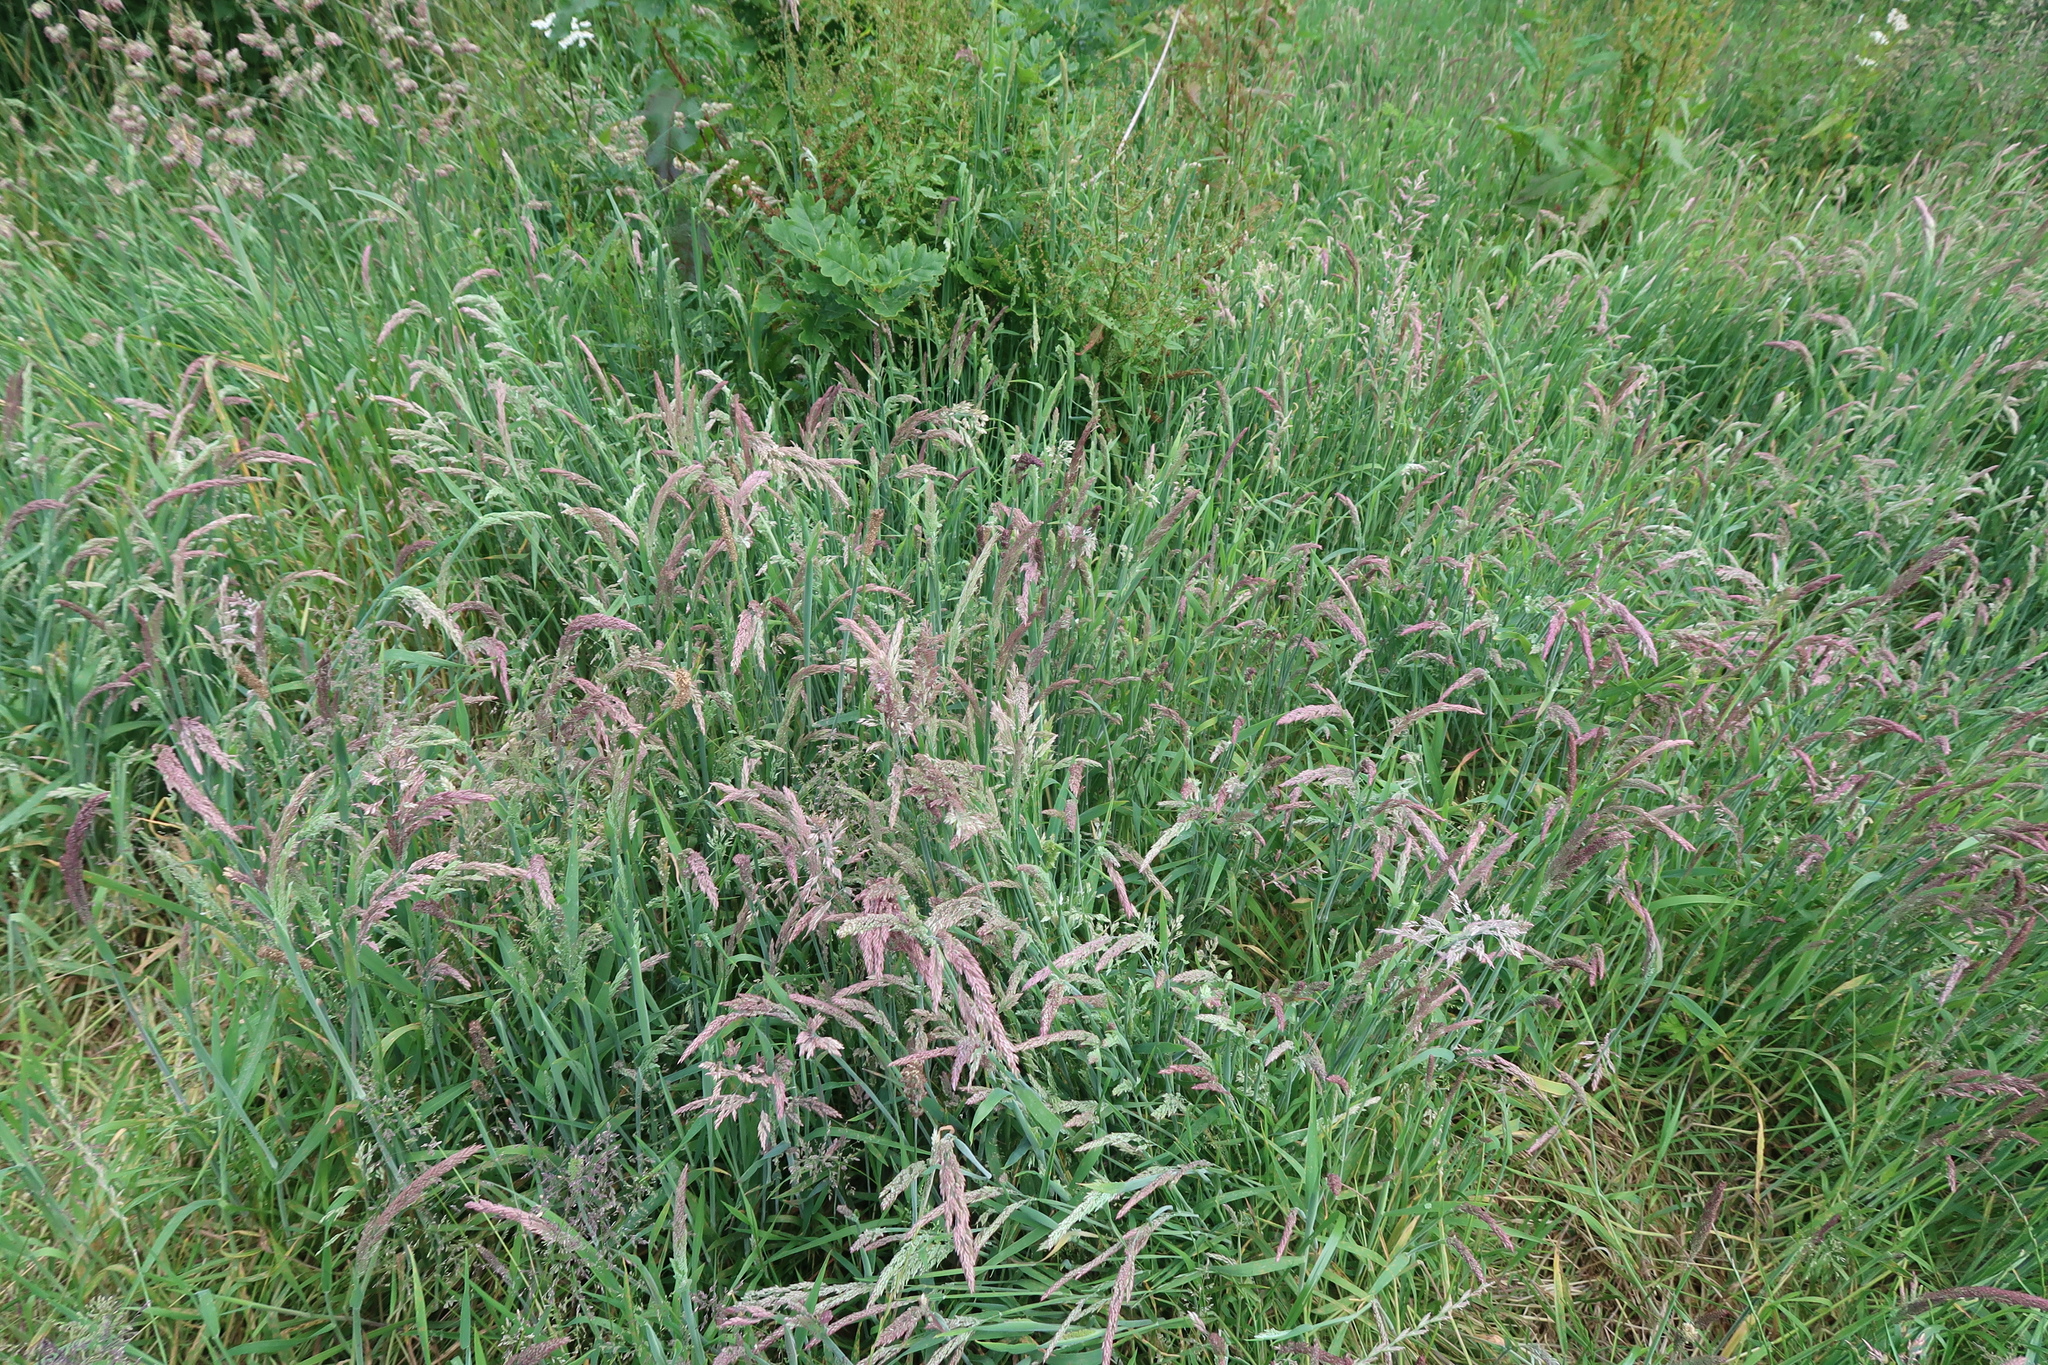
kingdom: Plantae
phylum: Tracheophyta
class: Liliopsida
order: Poales
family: Poaceae
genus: Holcus
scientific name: Holcus lanatus
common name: Yorkshire-fog
